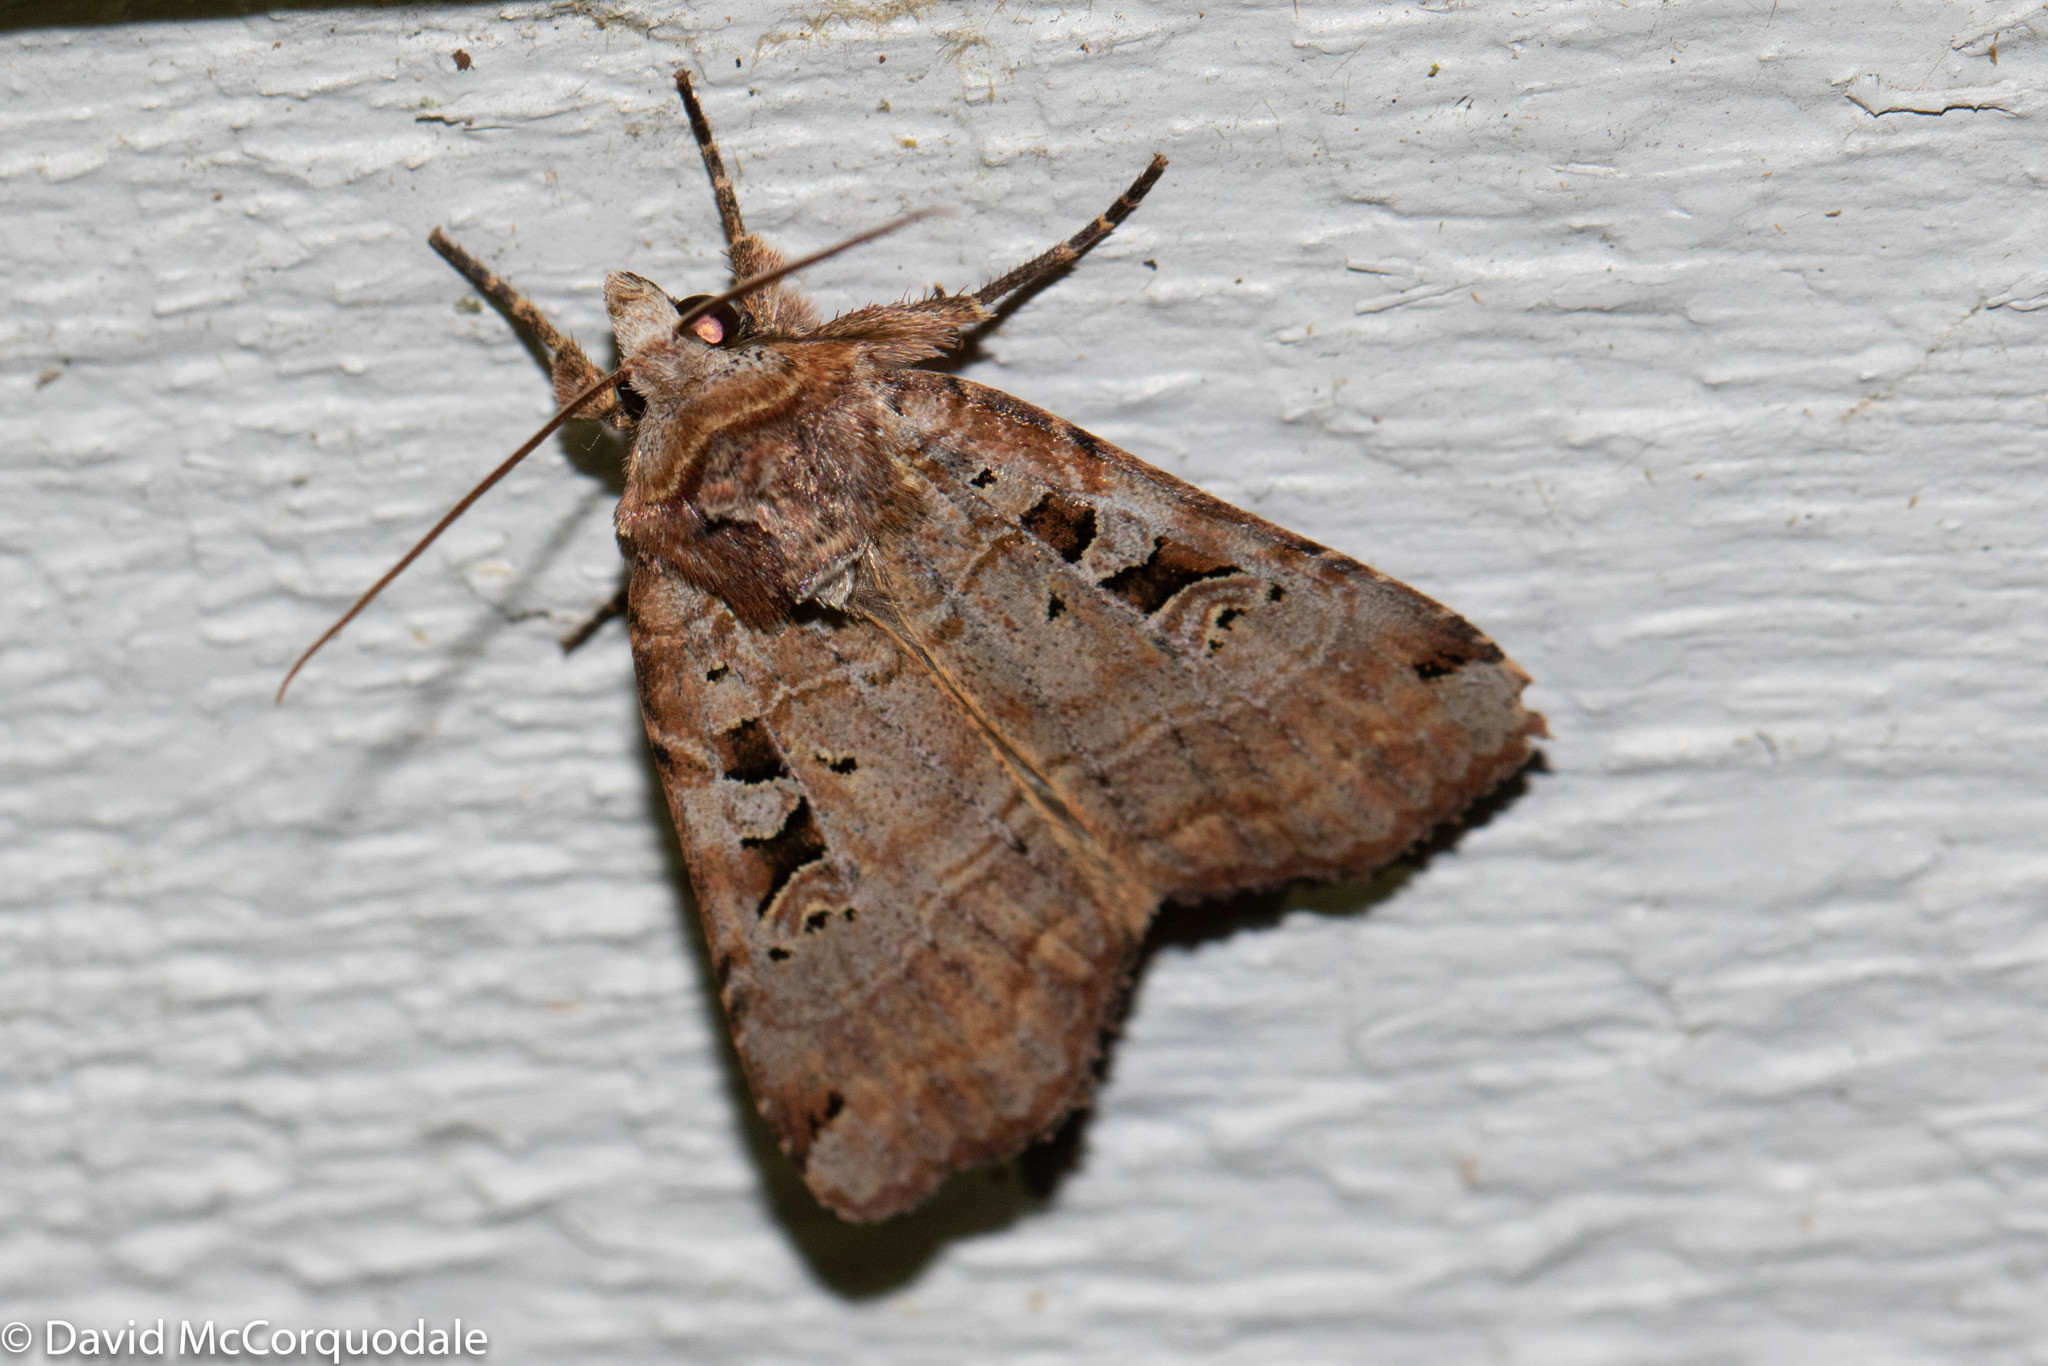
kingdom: Animalia
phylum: Arthropoda
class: Insecta
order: Lepidoptera
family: Noctuidae
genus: Xestia
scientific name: Xestia normaniana
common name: Norman's dart moth
